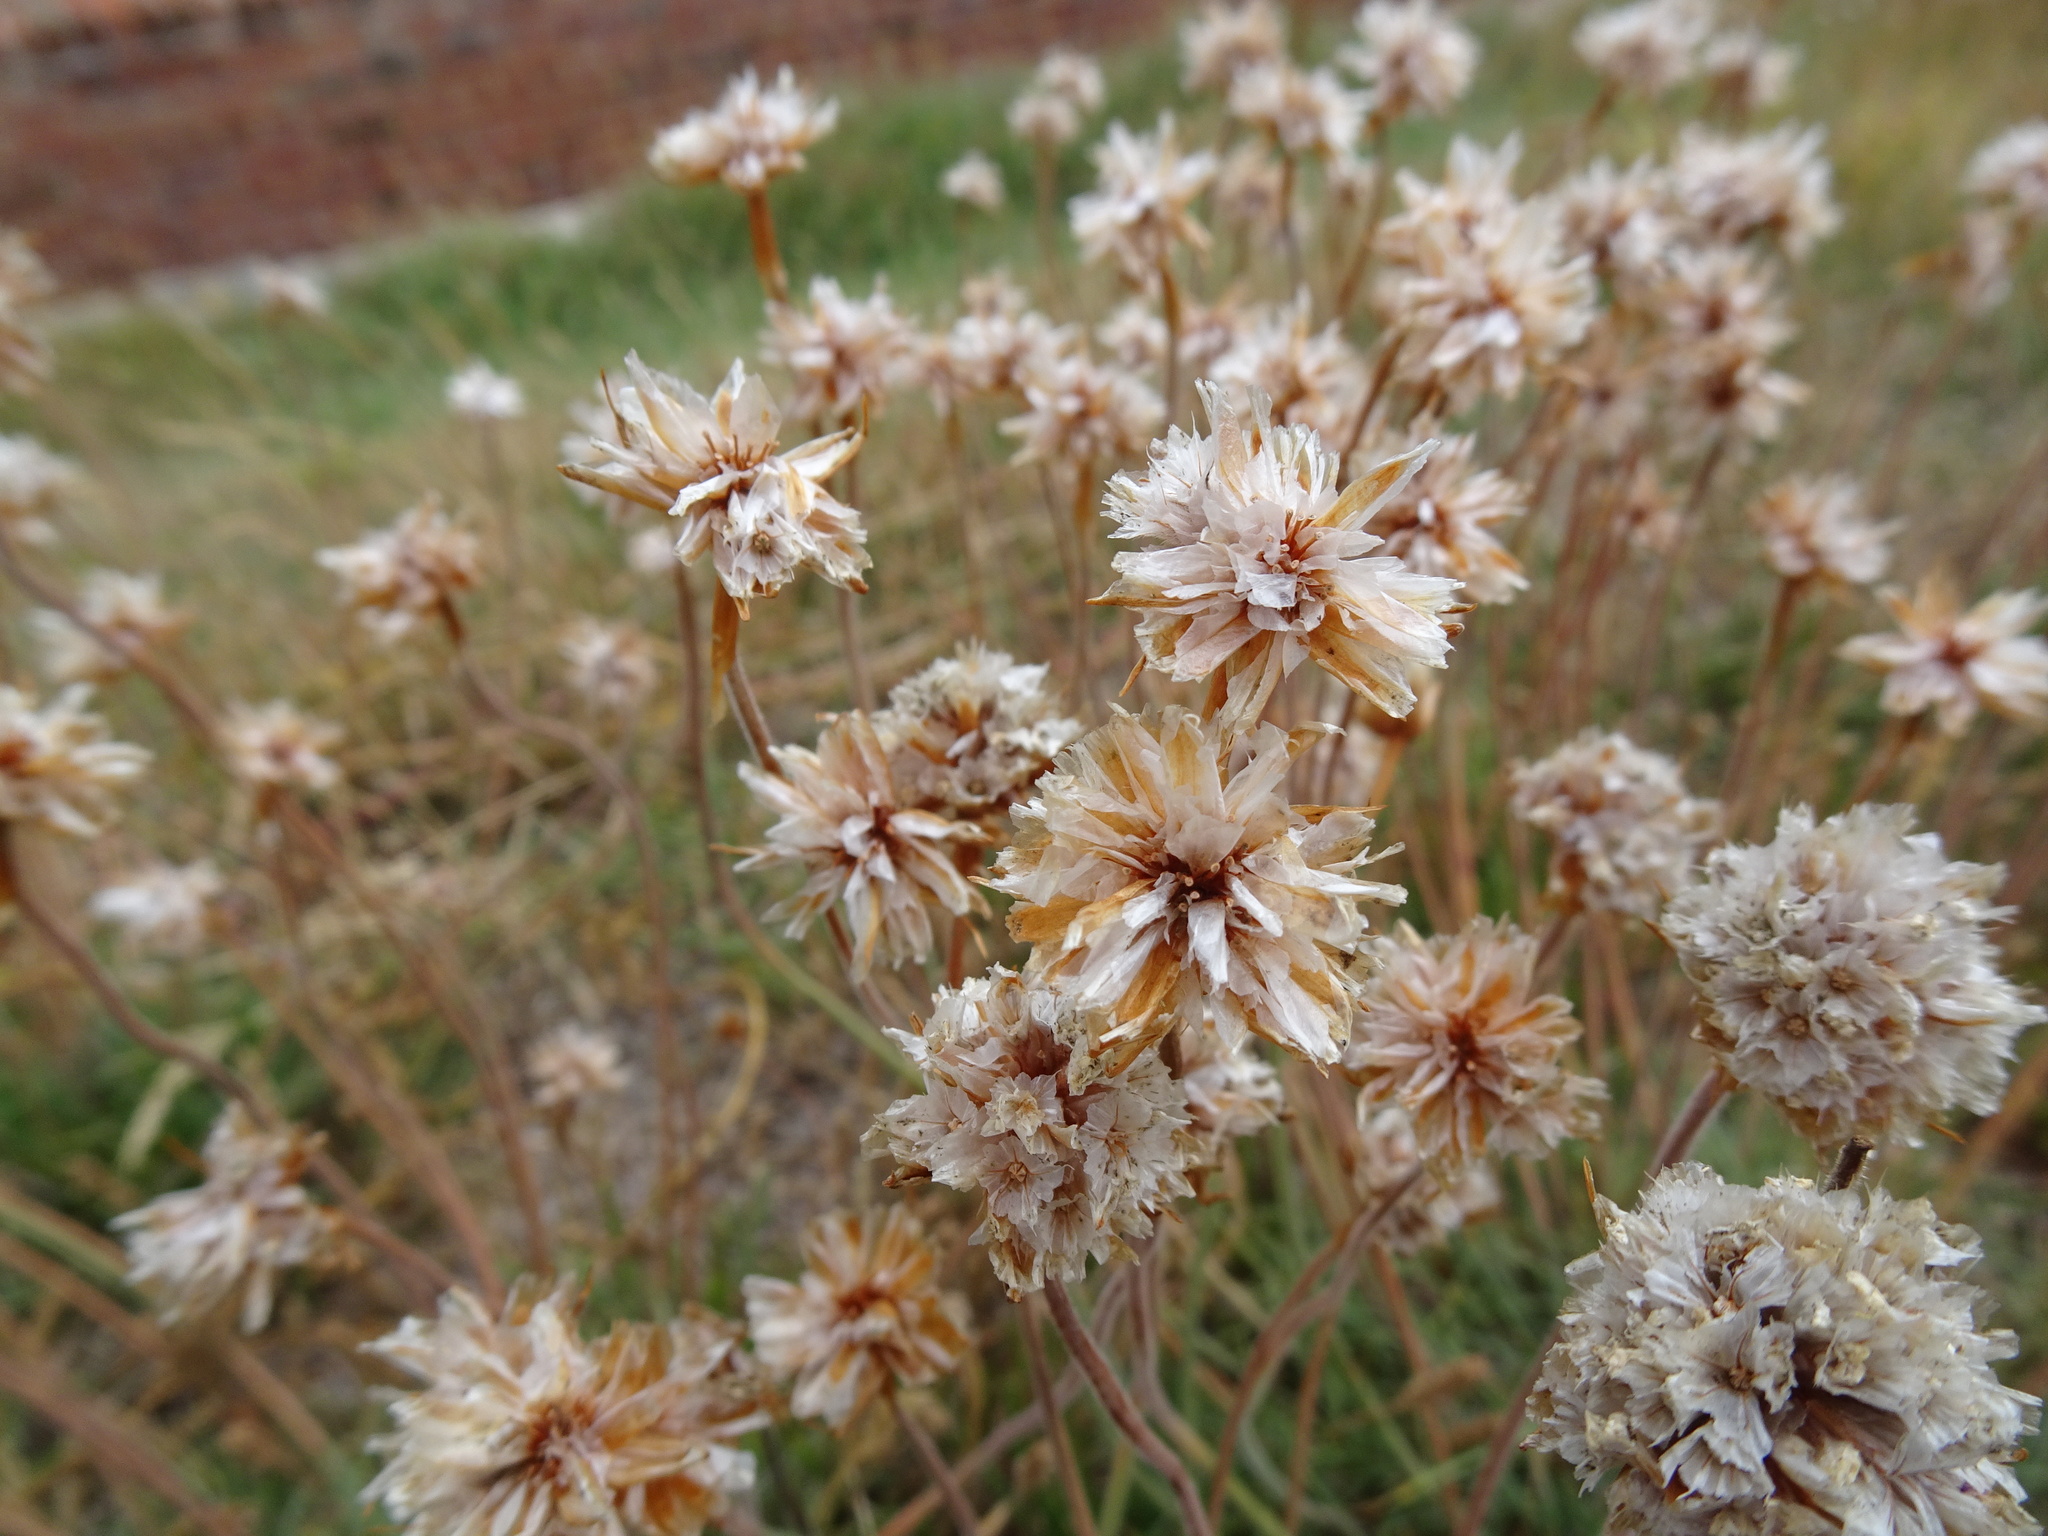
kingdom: Plantae
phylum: Tracheophyta
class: Magnoliopsida
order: Caryophyllales
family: Plumbaginaceae
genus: Armeria
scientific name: Armeria maritima
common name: Thrift
